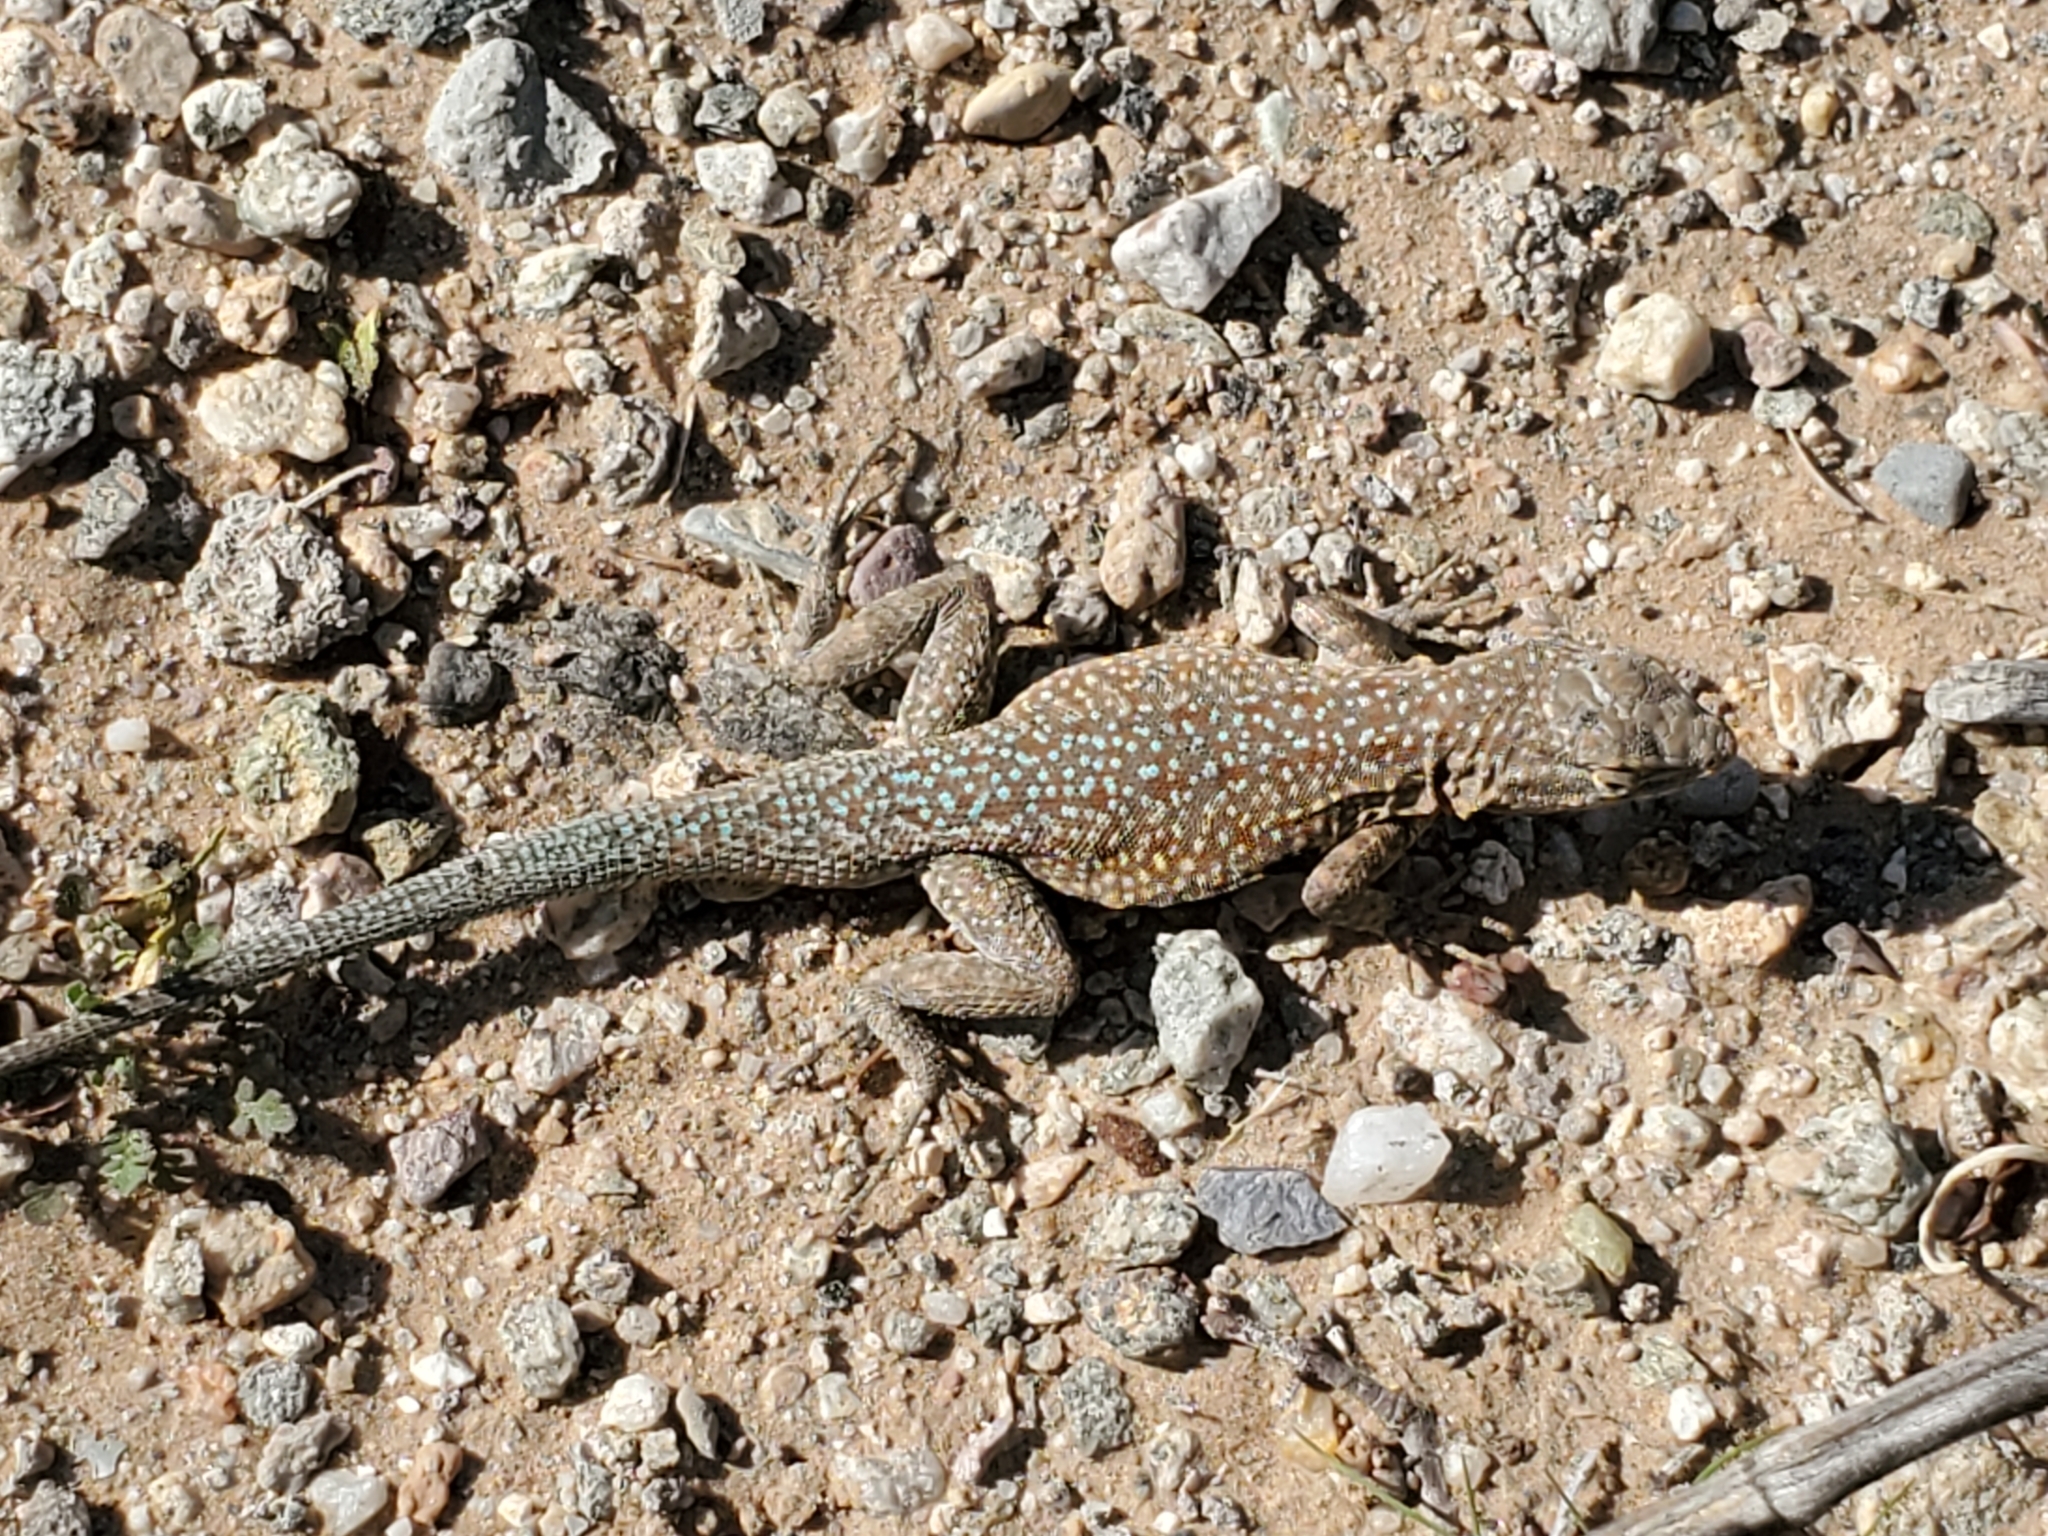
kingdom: Animalia
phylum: Chordata
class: Squamata
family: Phrynosomatidae
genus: Uta
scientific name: Uta stansburiana
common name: Side-blotched lizard
